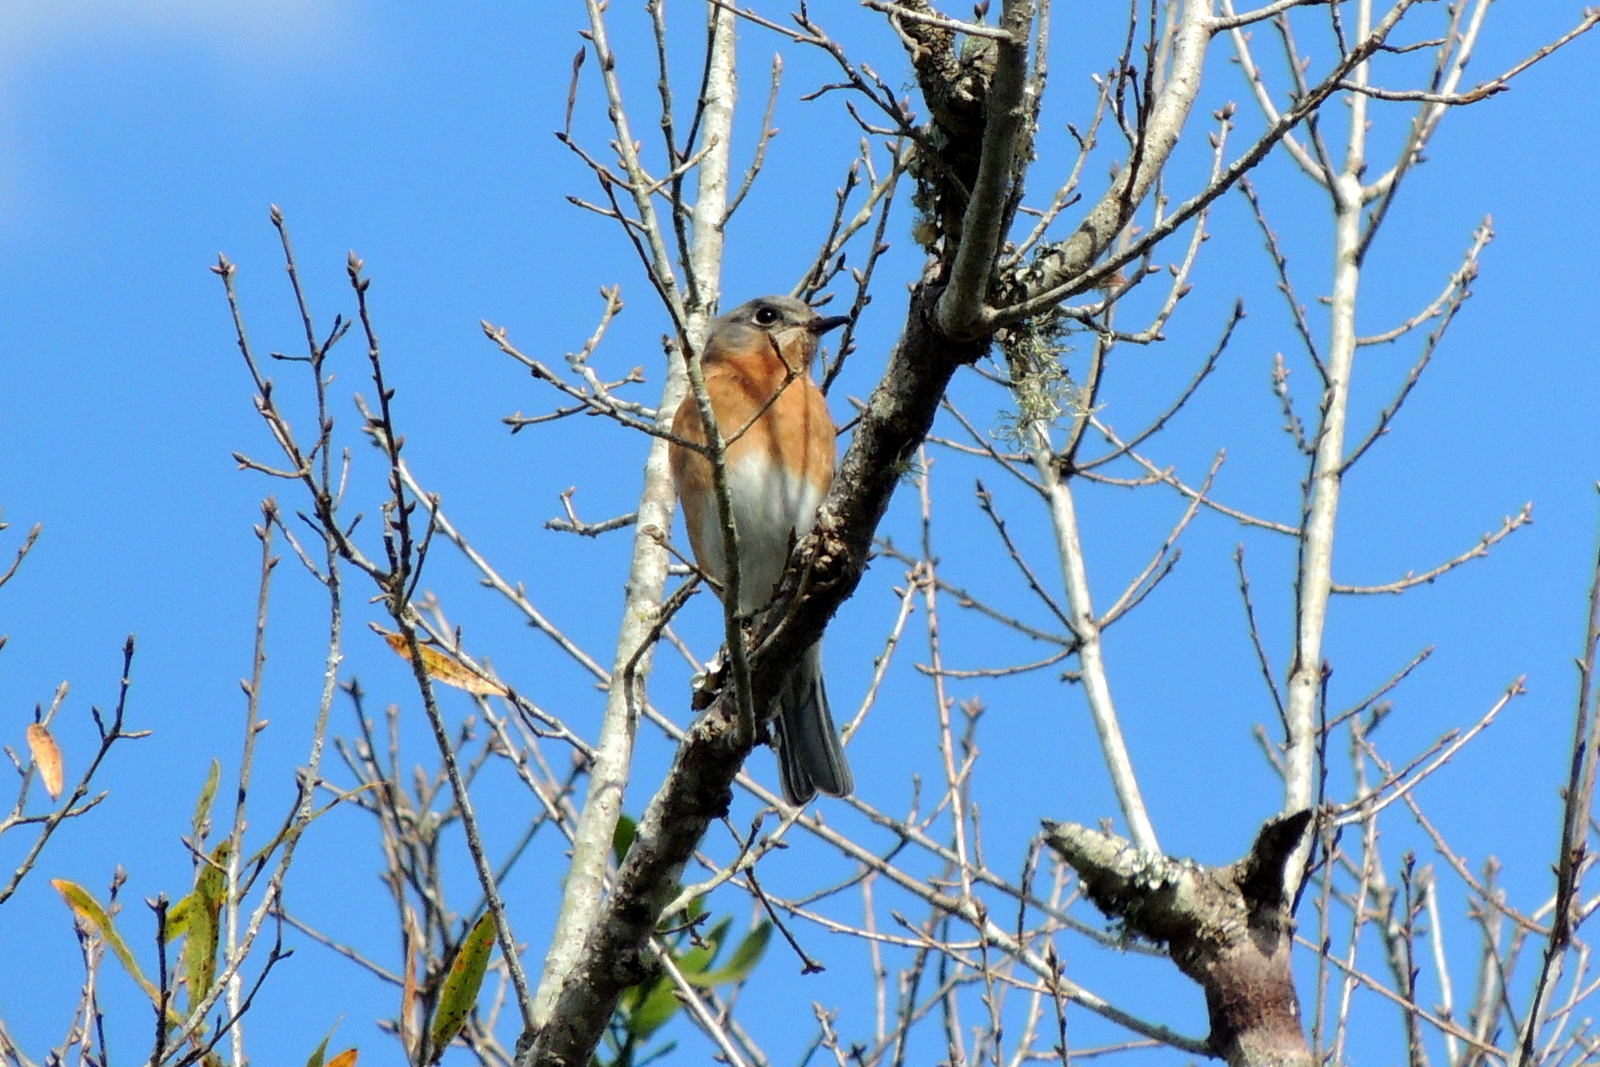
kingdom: Animalia
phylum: Chordata
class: Aves
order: Passeriformes
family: Turdidae
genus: Sialia
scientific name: Sialia sialis
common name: Eastern bluebird
